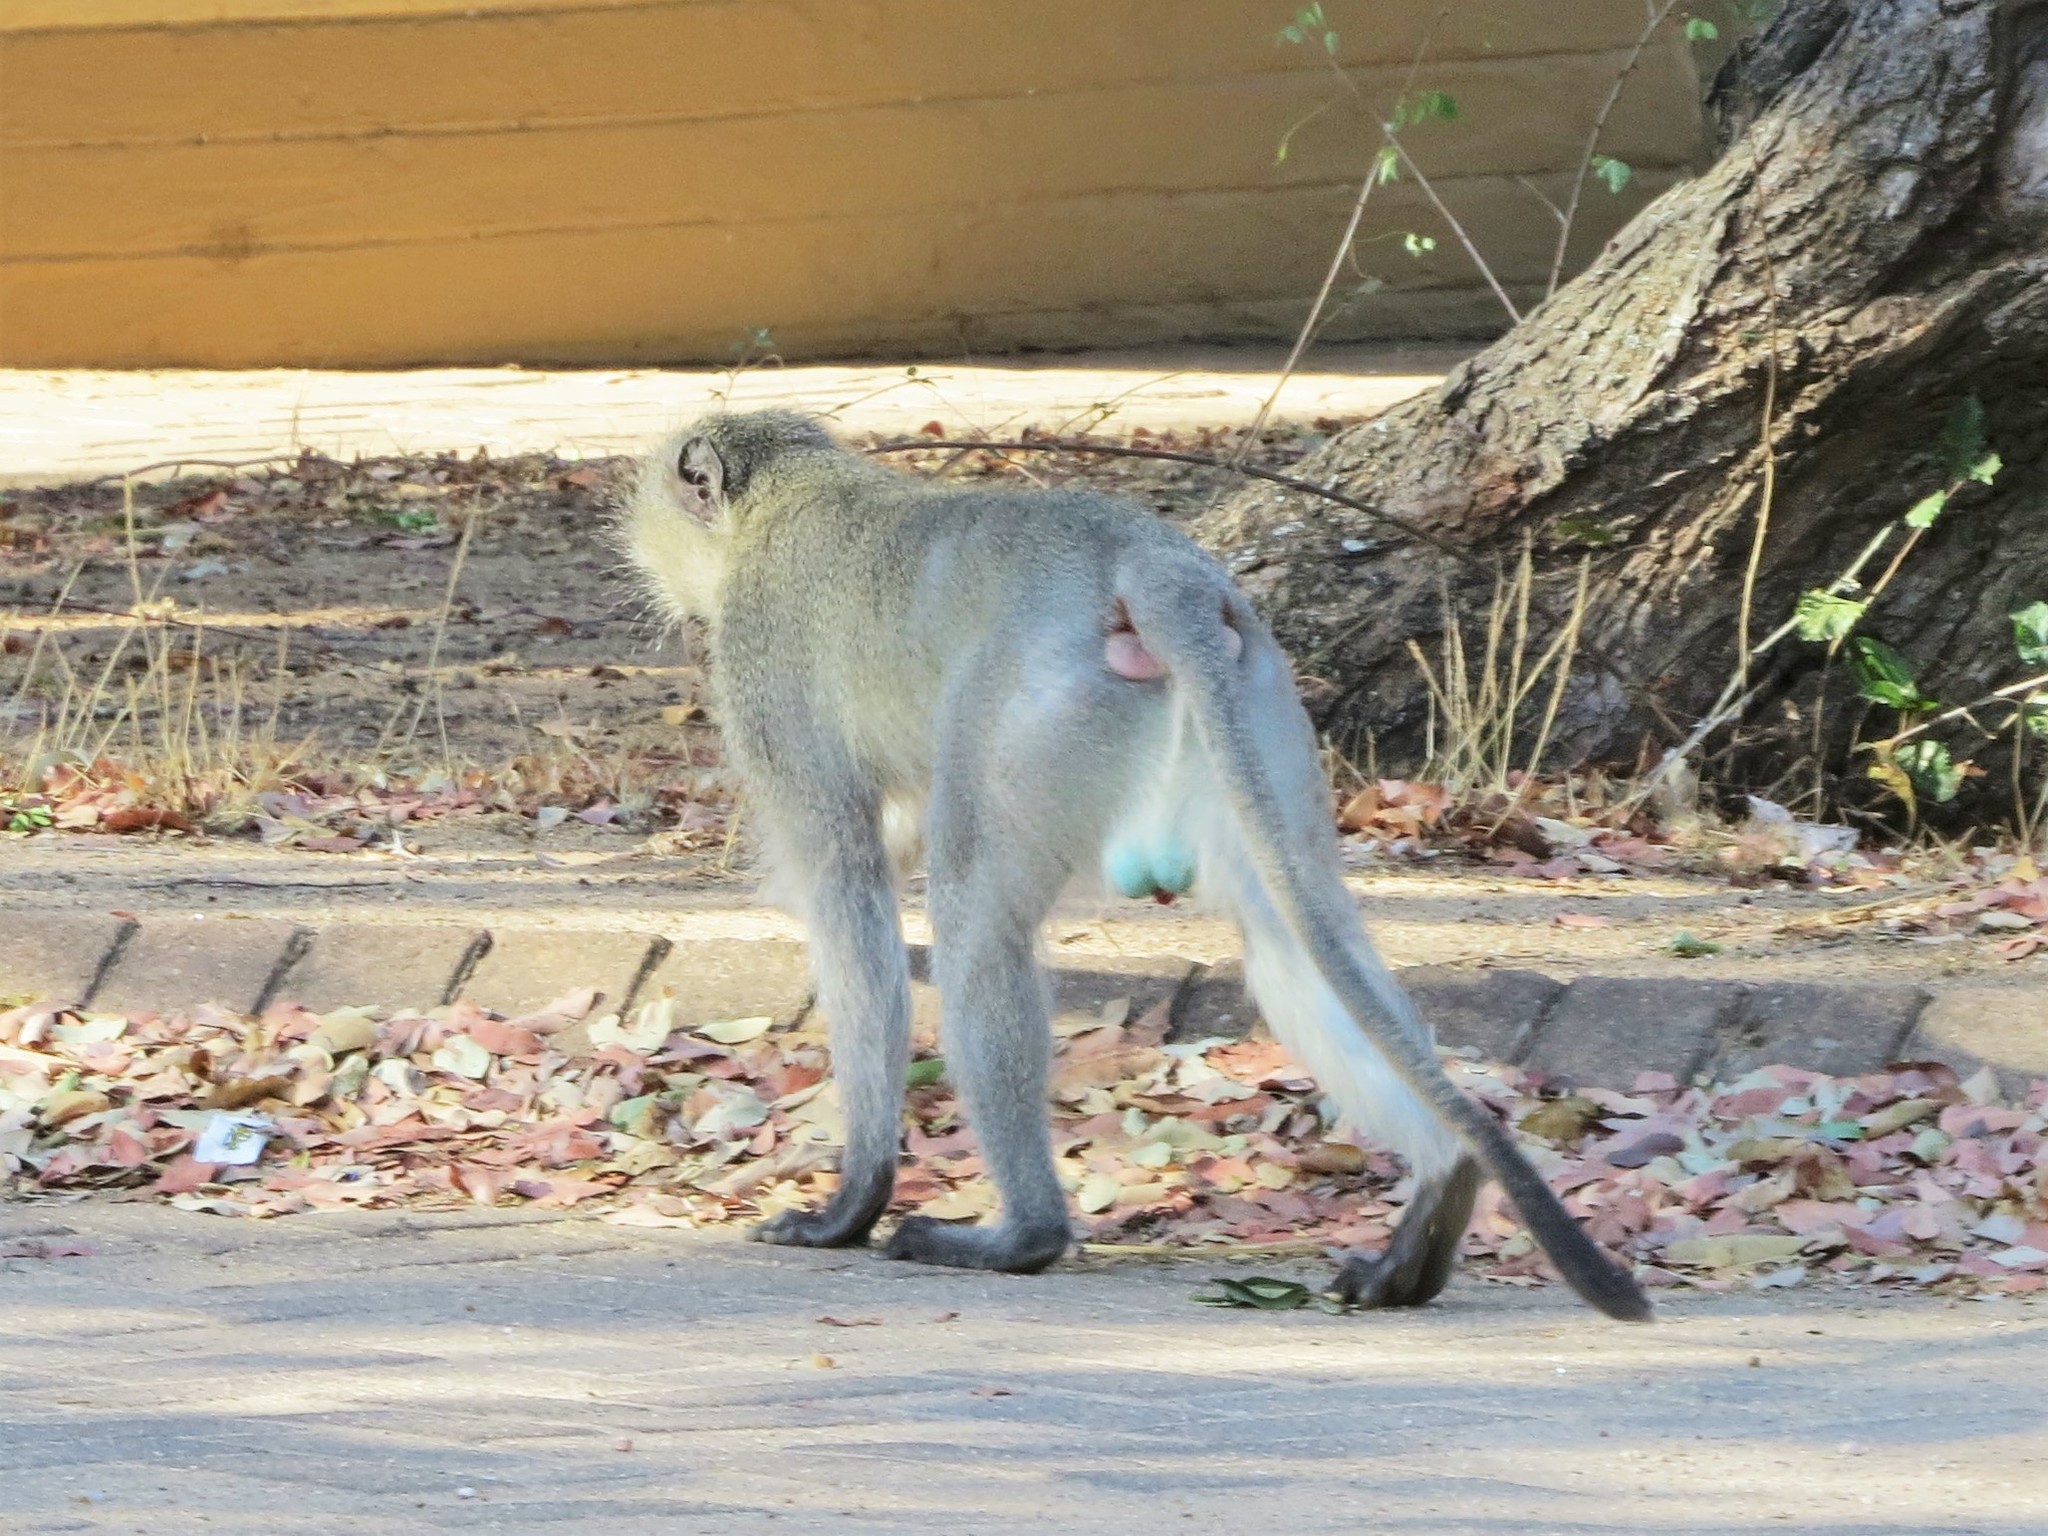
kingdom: Animalia
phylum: Chordata
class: Mammalia
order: Primates
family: Cercopithecidae
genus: Chlorocebus
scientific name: Chlorocebus pygerythrus
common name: Vervet monkey
